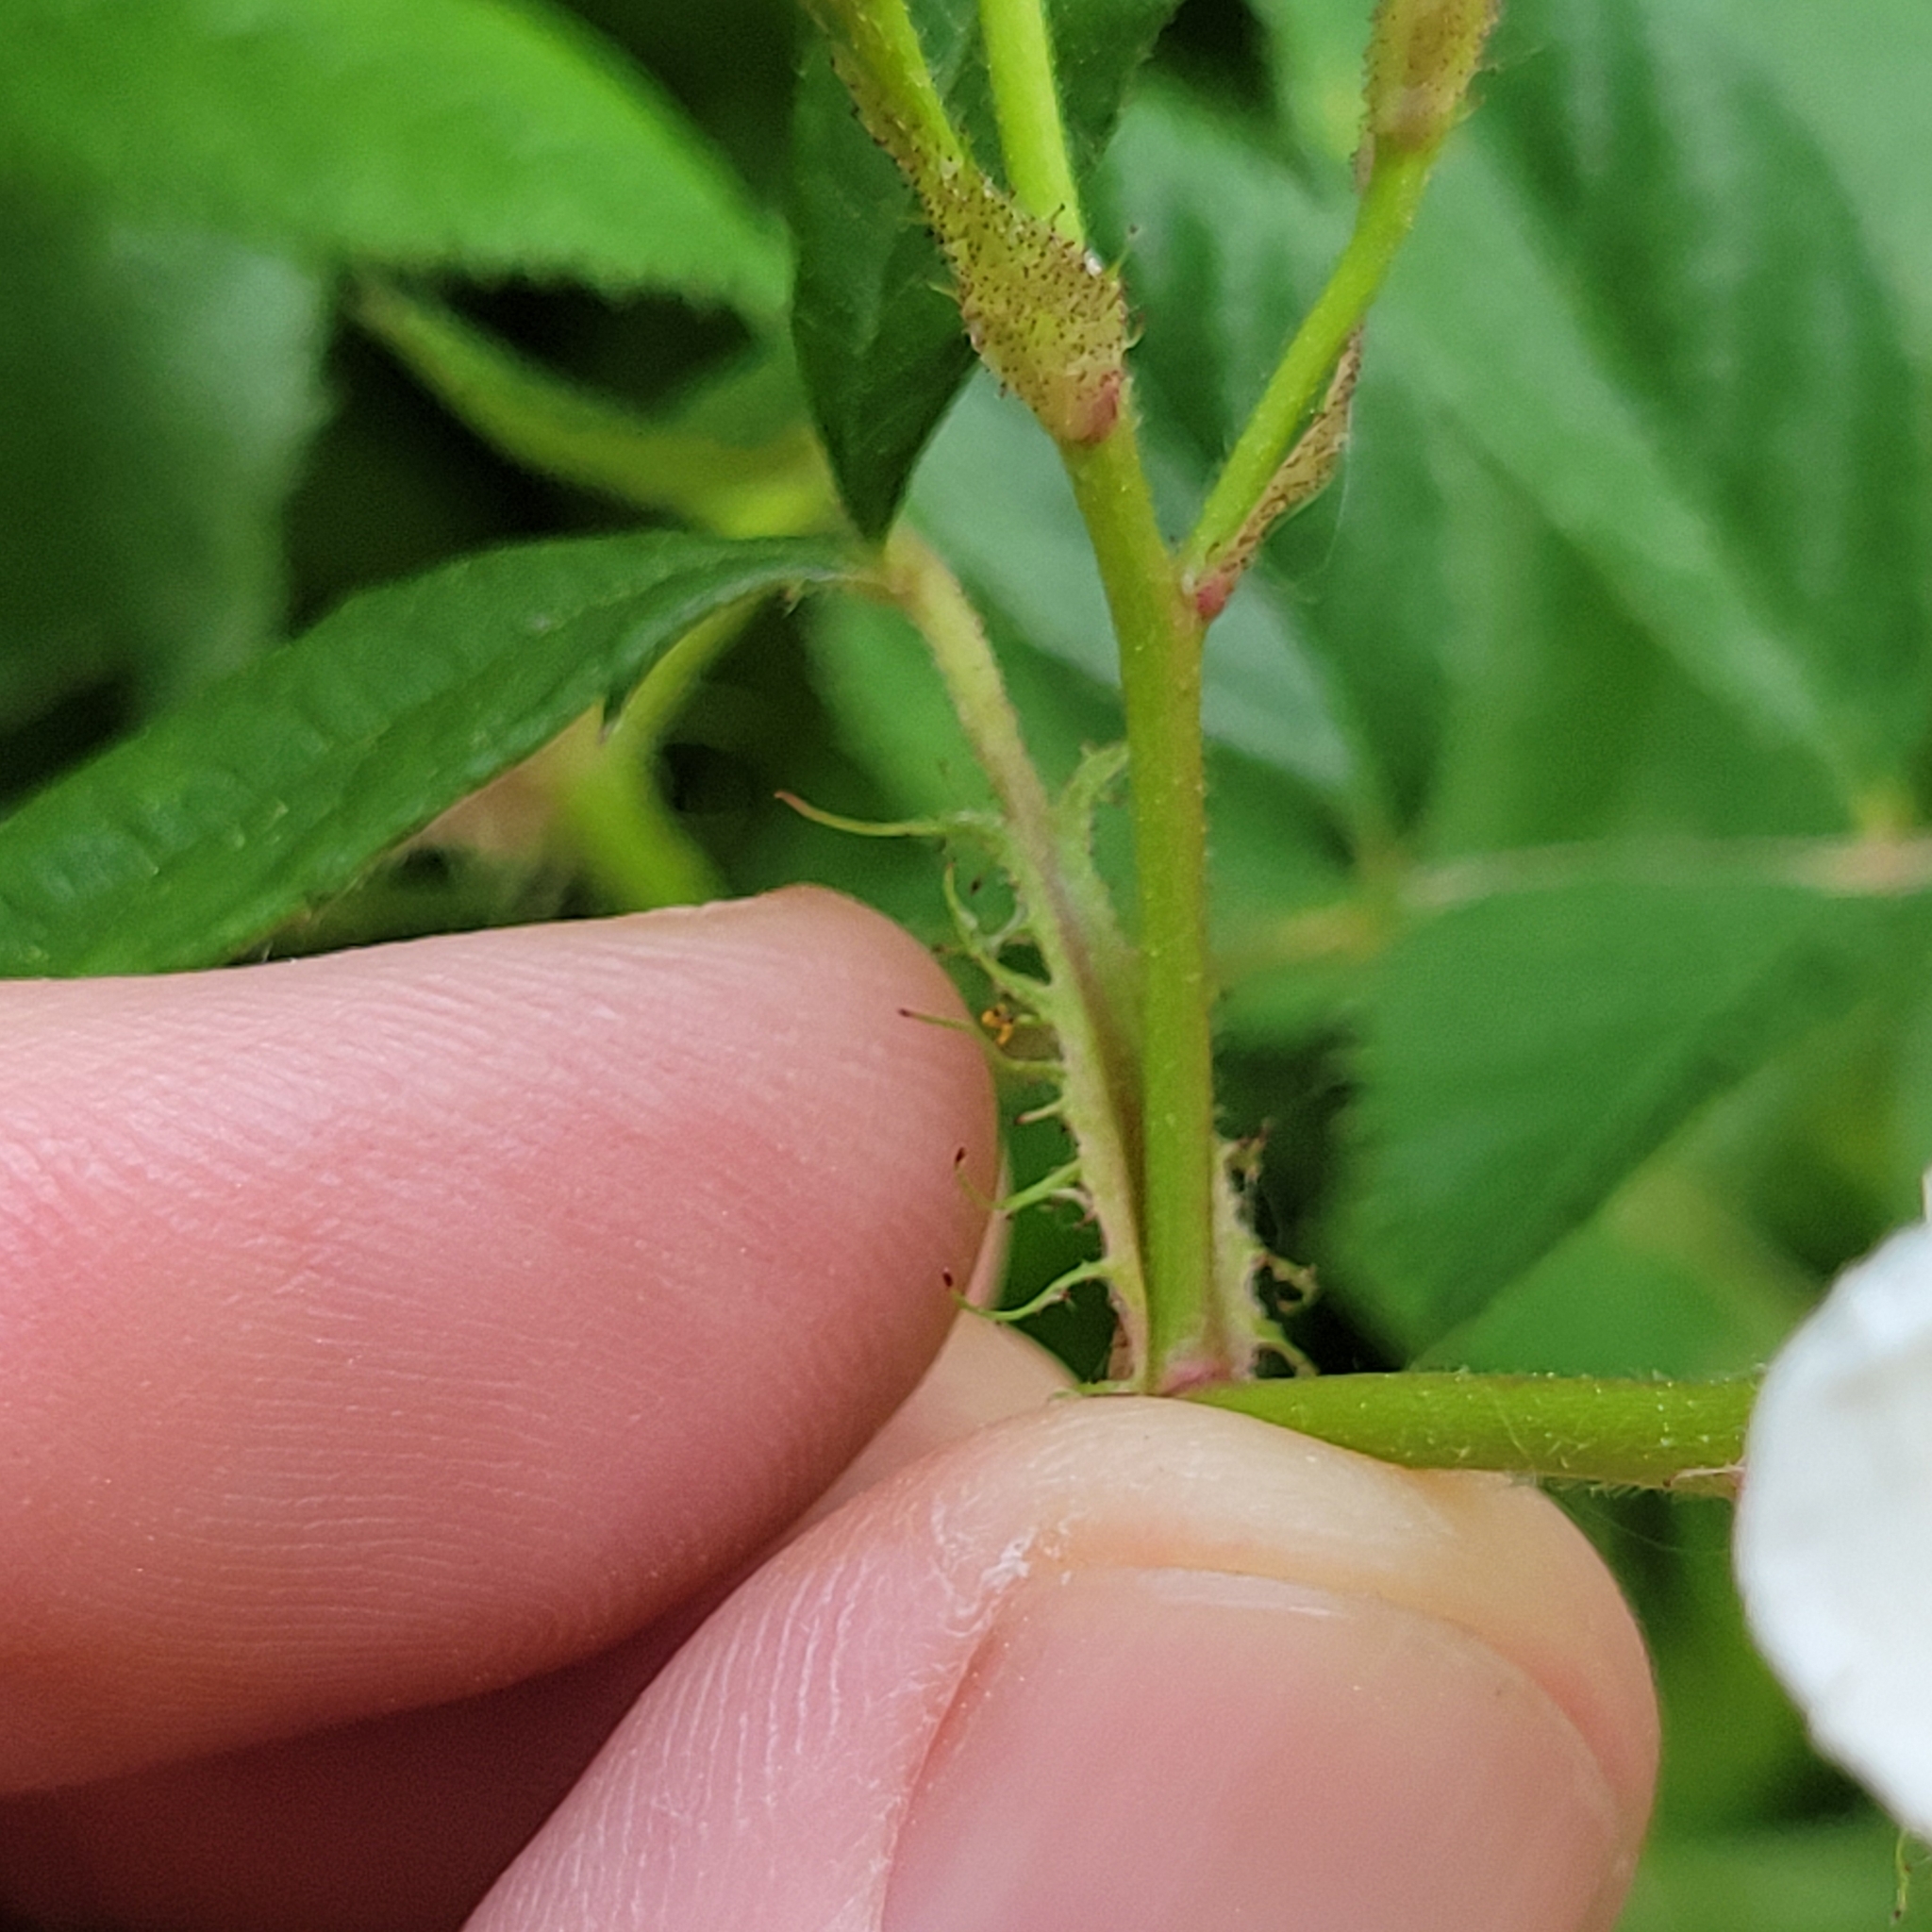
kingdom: Plantae
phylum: Tracheophyta
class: Magnoliopsida
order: Rosales
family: Rosaceae
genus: Rosa
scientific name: Rosa multiflora
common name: Multiflora rose
